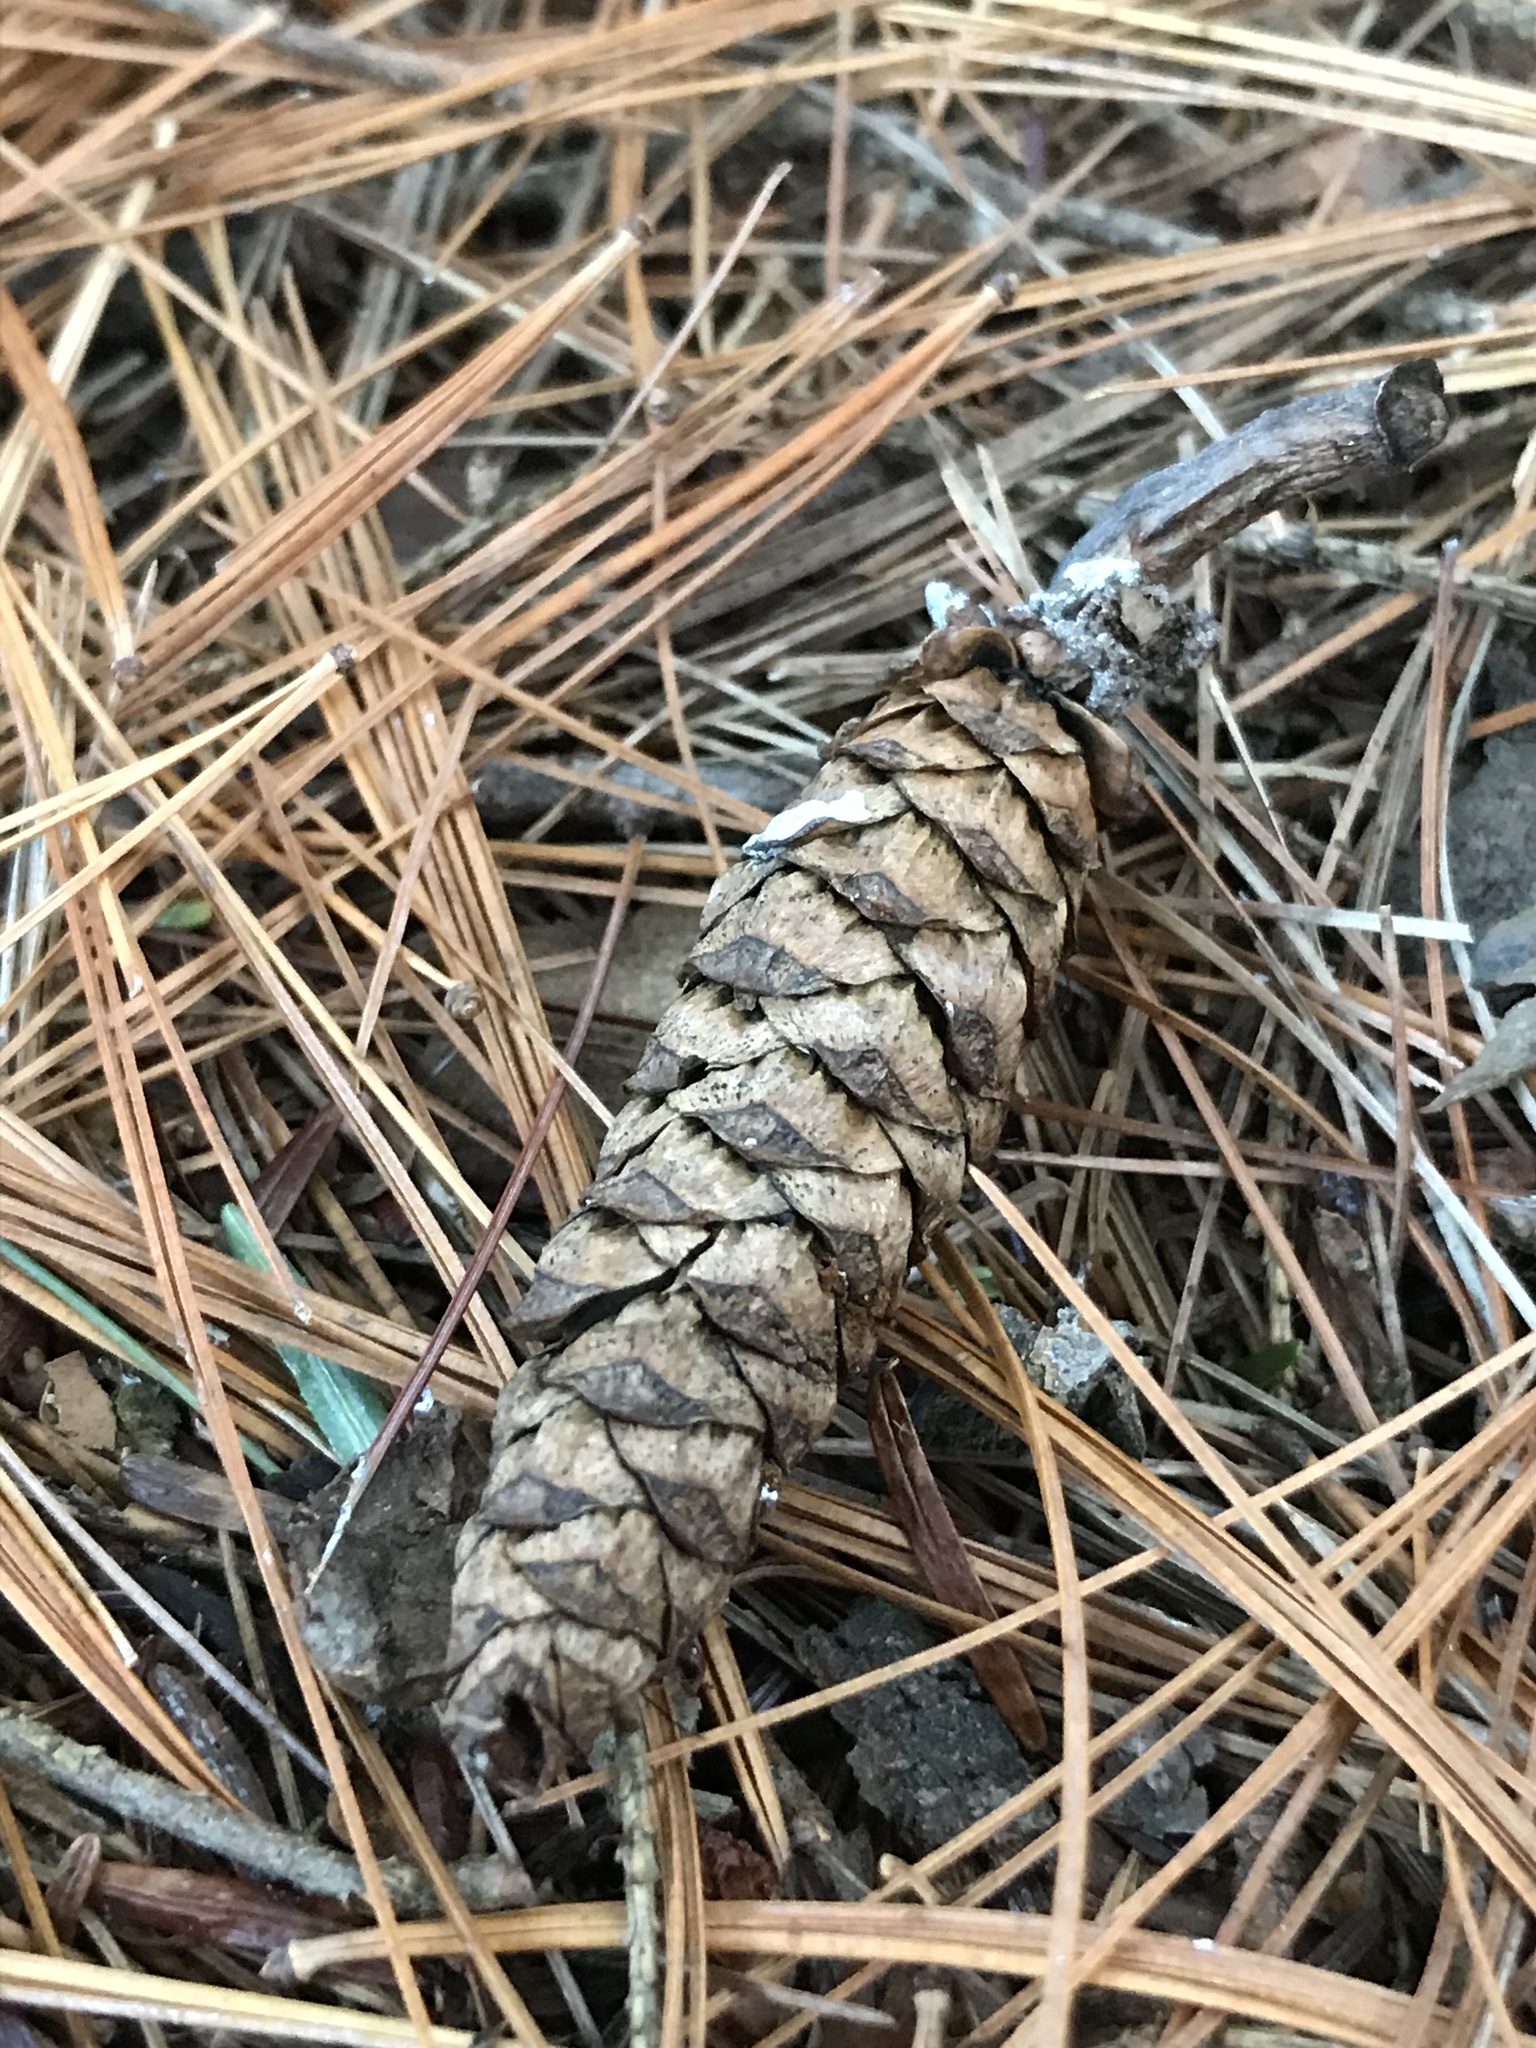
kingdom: Plantae
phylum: Tracheophyta
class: Pinopsida
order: Pinales
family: Pinaceae
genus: Pinus
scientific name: Pinus strobus
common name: Weymouth pine
